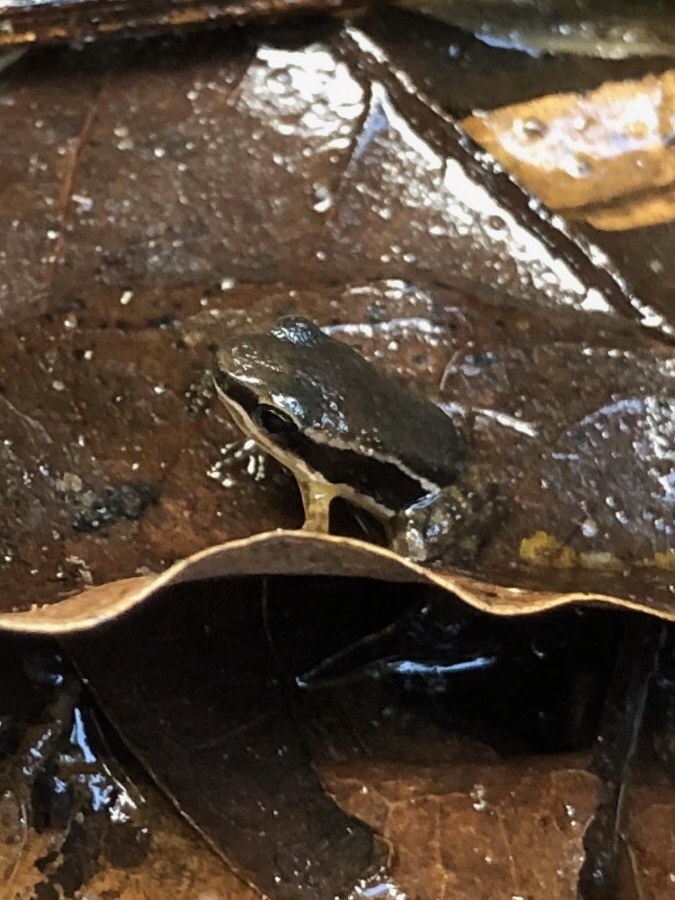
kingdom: Animalia
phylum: Chordata
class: Amphibia
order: Anura
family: Dendrobatidae
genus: Silverstoneia
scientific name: Silverstoneia flotator
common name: Rainforest rocket frog
